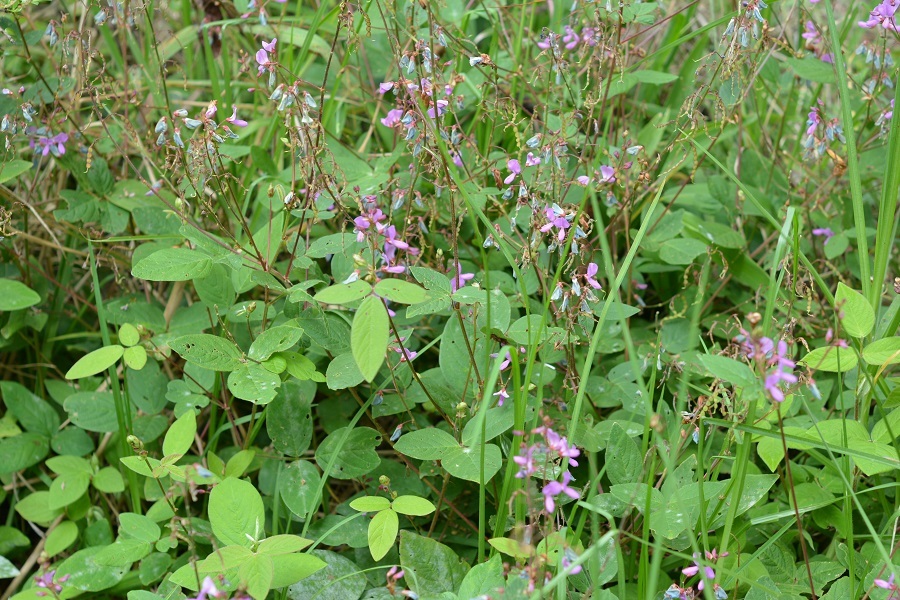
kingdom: Plantae
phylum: Tracheophyta
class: Magnoliopsida
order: Fabales
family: Fabaceae
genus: Desmodium
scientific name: Desmodium pringlei
